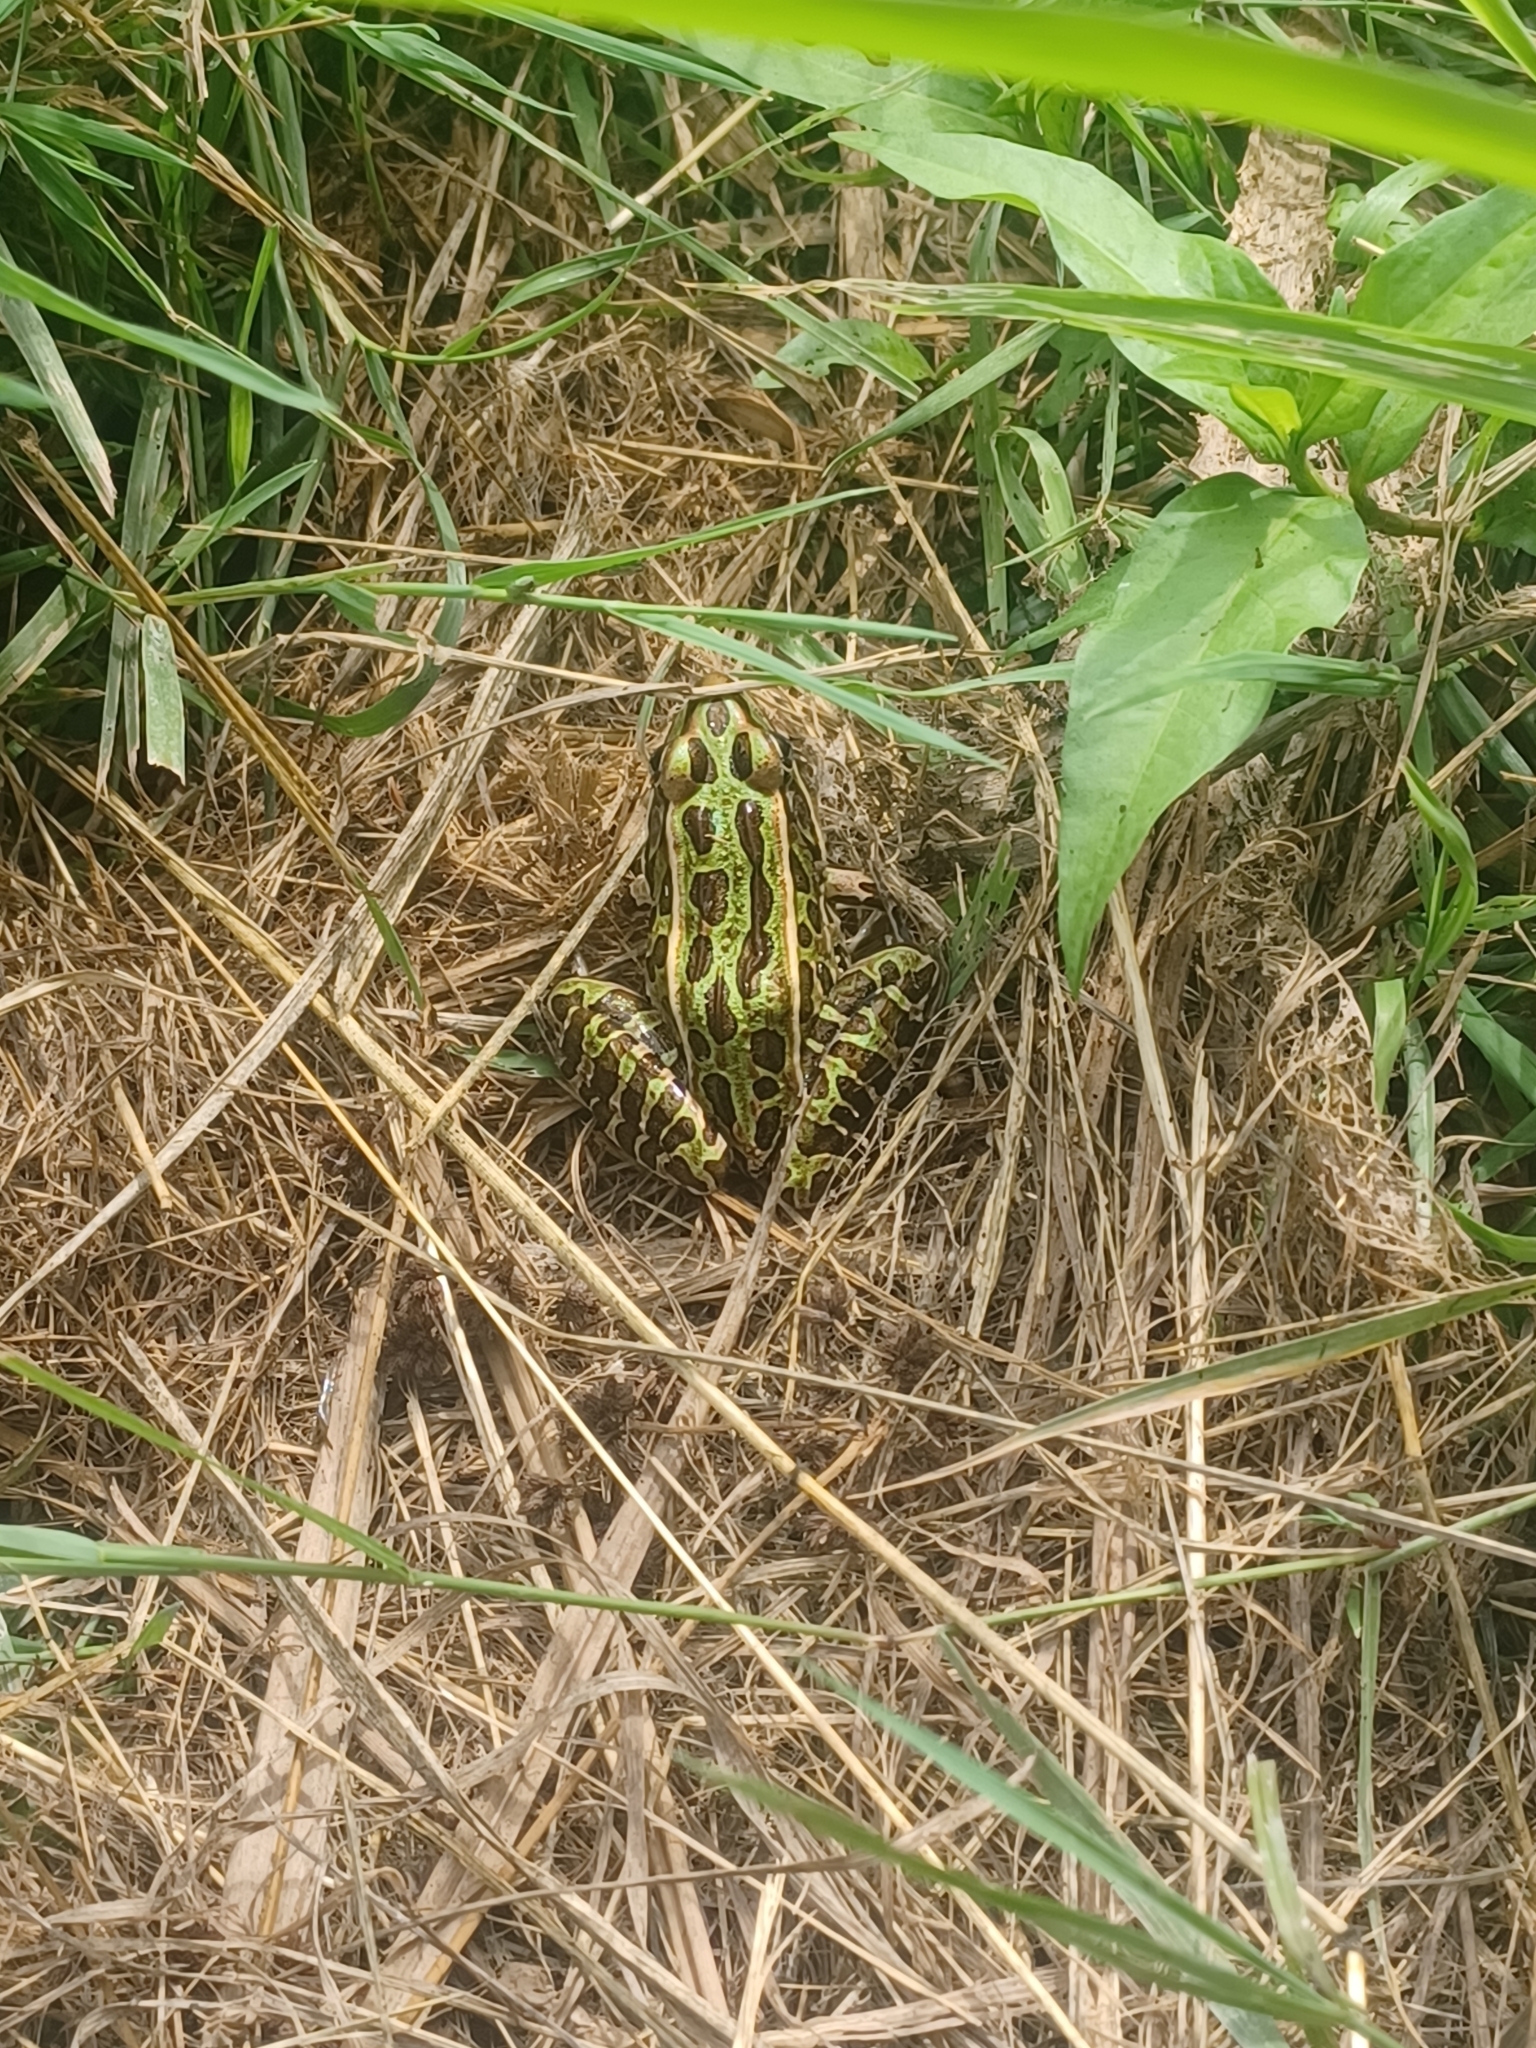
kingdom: Animalia
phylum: Chordata
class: Amphibia
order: Anura
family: Ranidae
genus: Lithobates
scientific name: Lithobates pipiens
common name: Northern leopard frog
